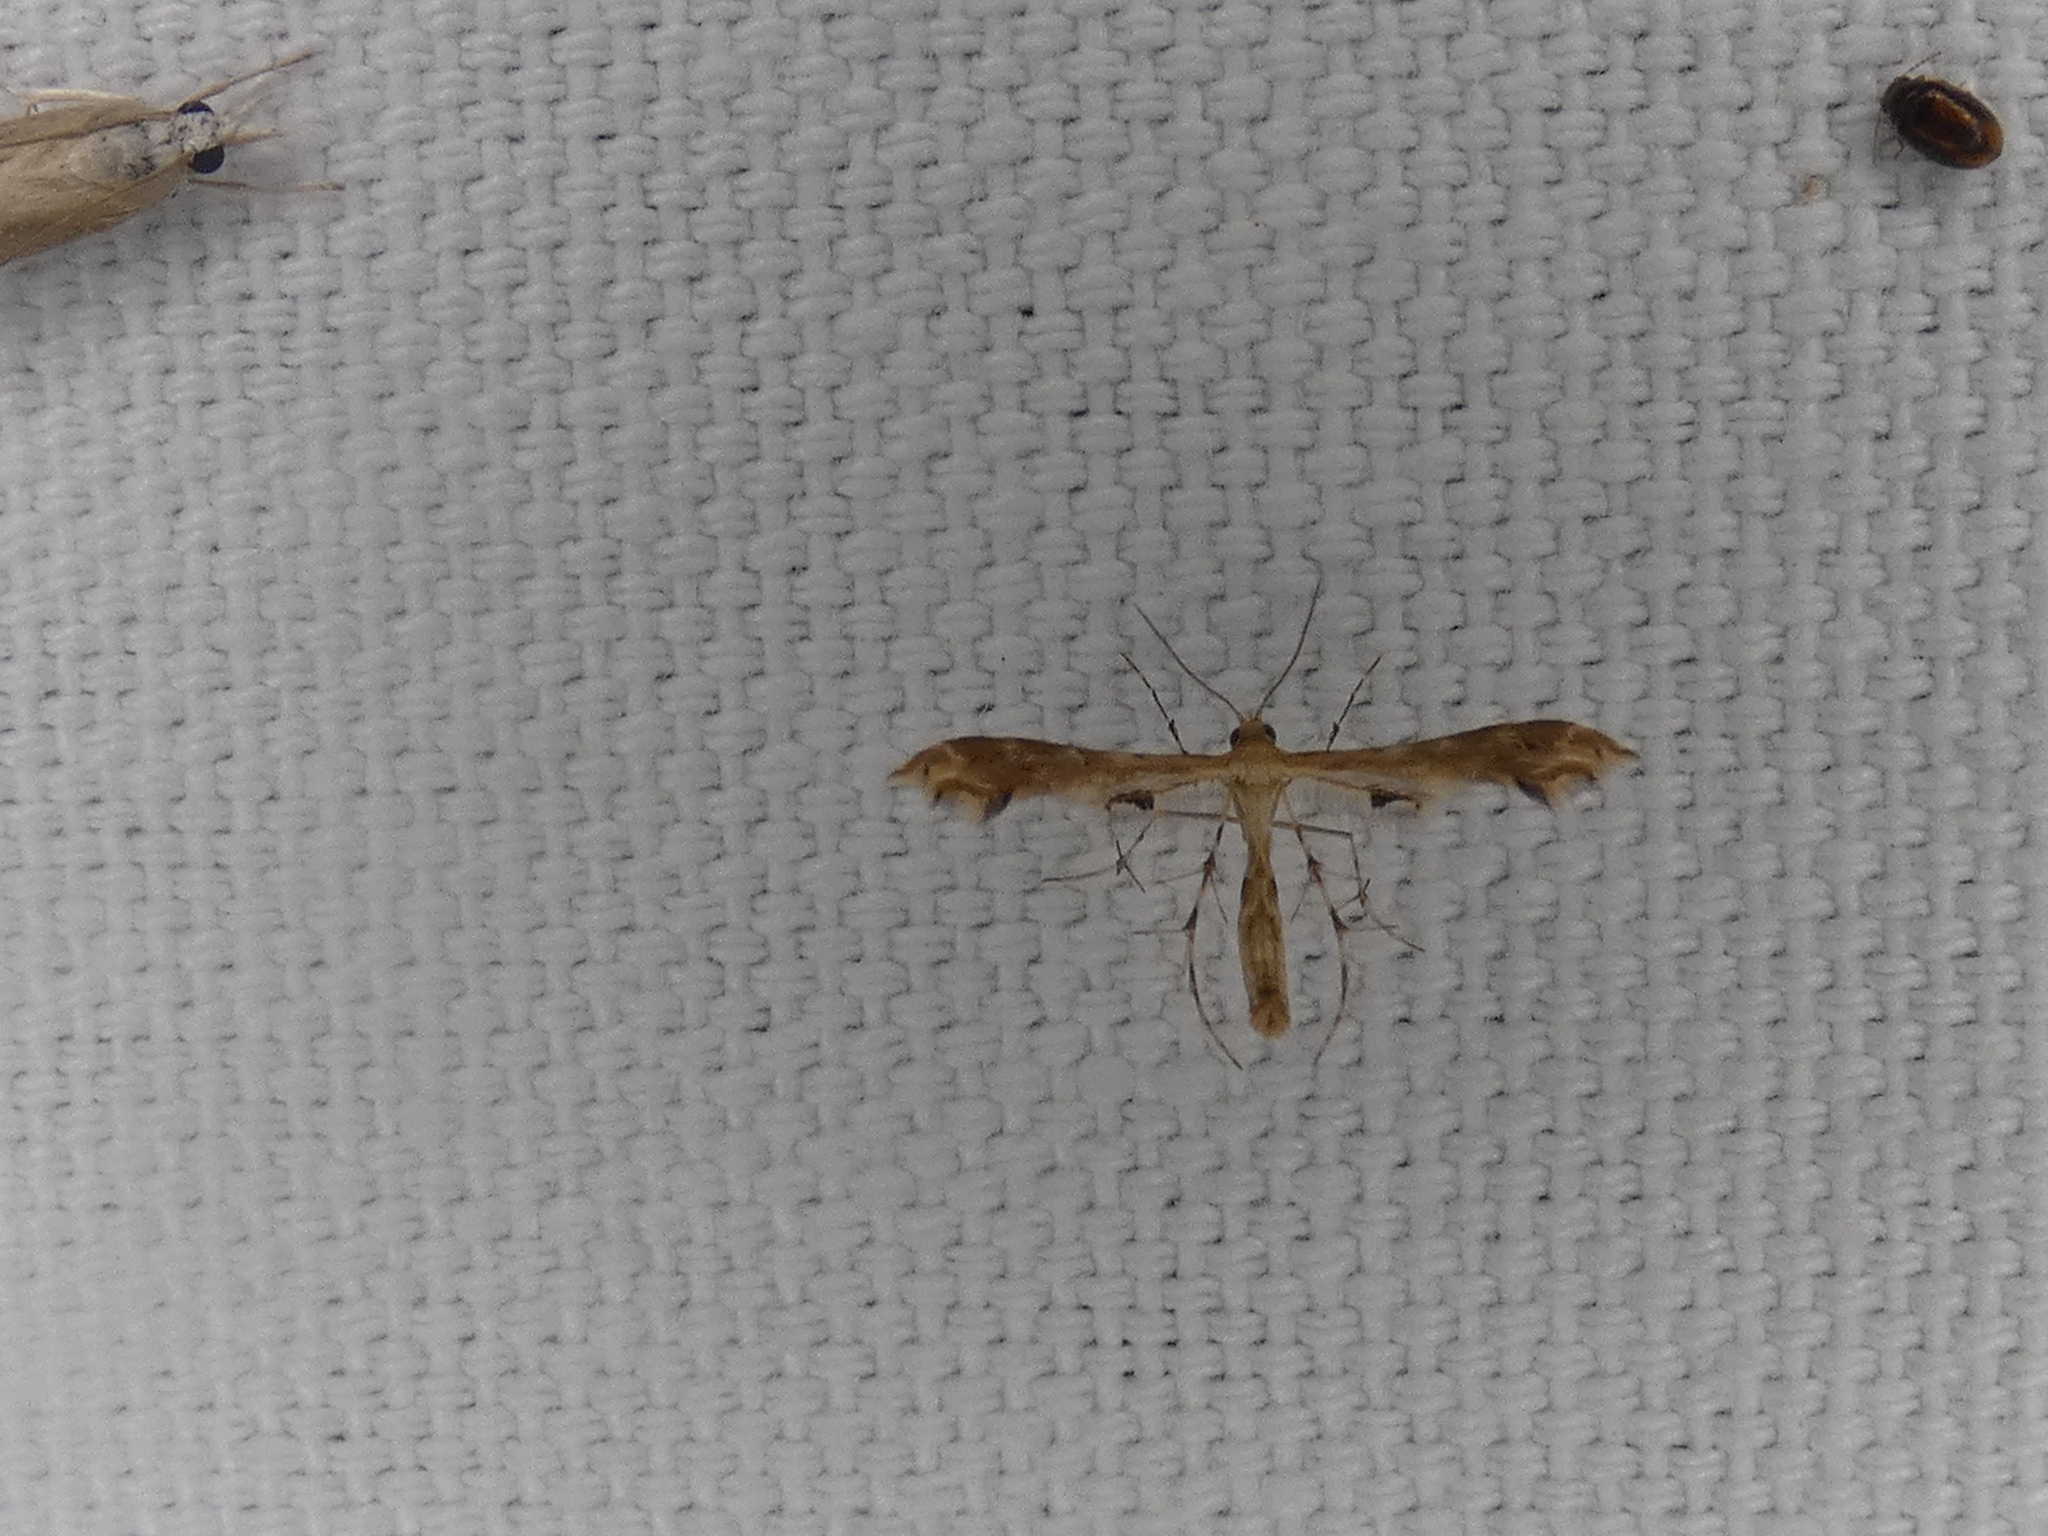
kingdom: Animalia
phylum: Arthropoda
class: Insecta
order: Lepidoptera
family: Pterophoridae
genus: Sphenarches
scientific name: Sphenarches anisodactylus
